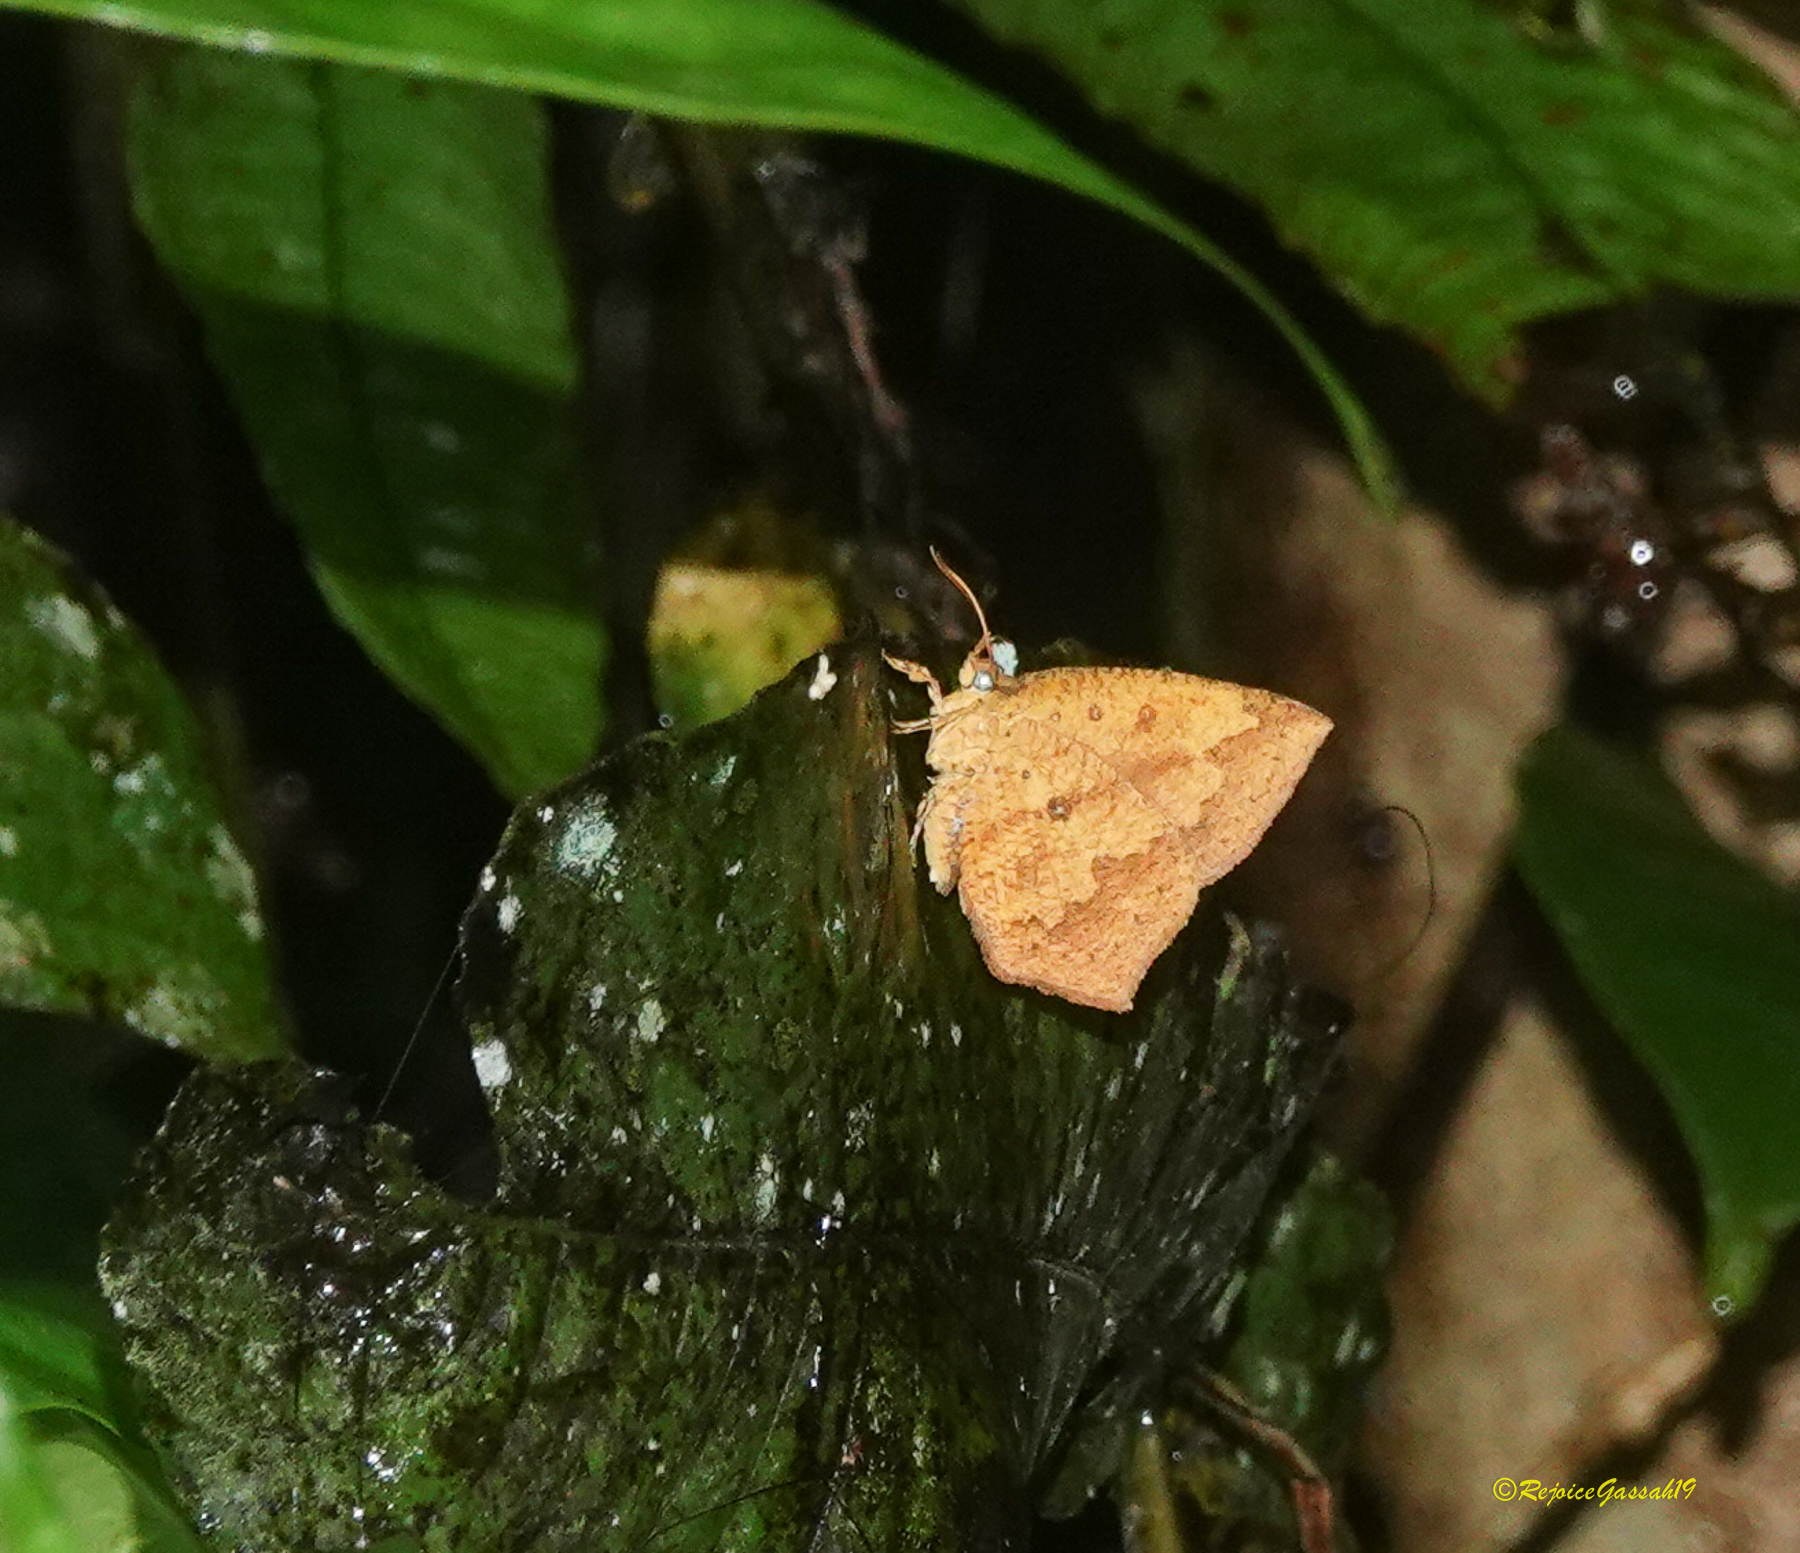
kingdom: Animalia
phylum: Arthropoda
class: Insecta
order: Lepidoptera
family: Callidulidae
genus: Tetragonus
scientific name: Tetragonus catamitus
